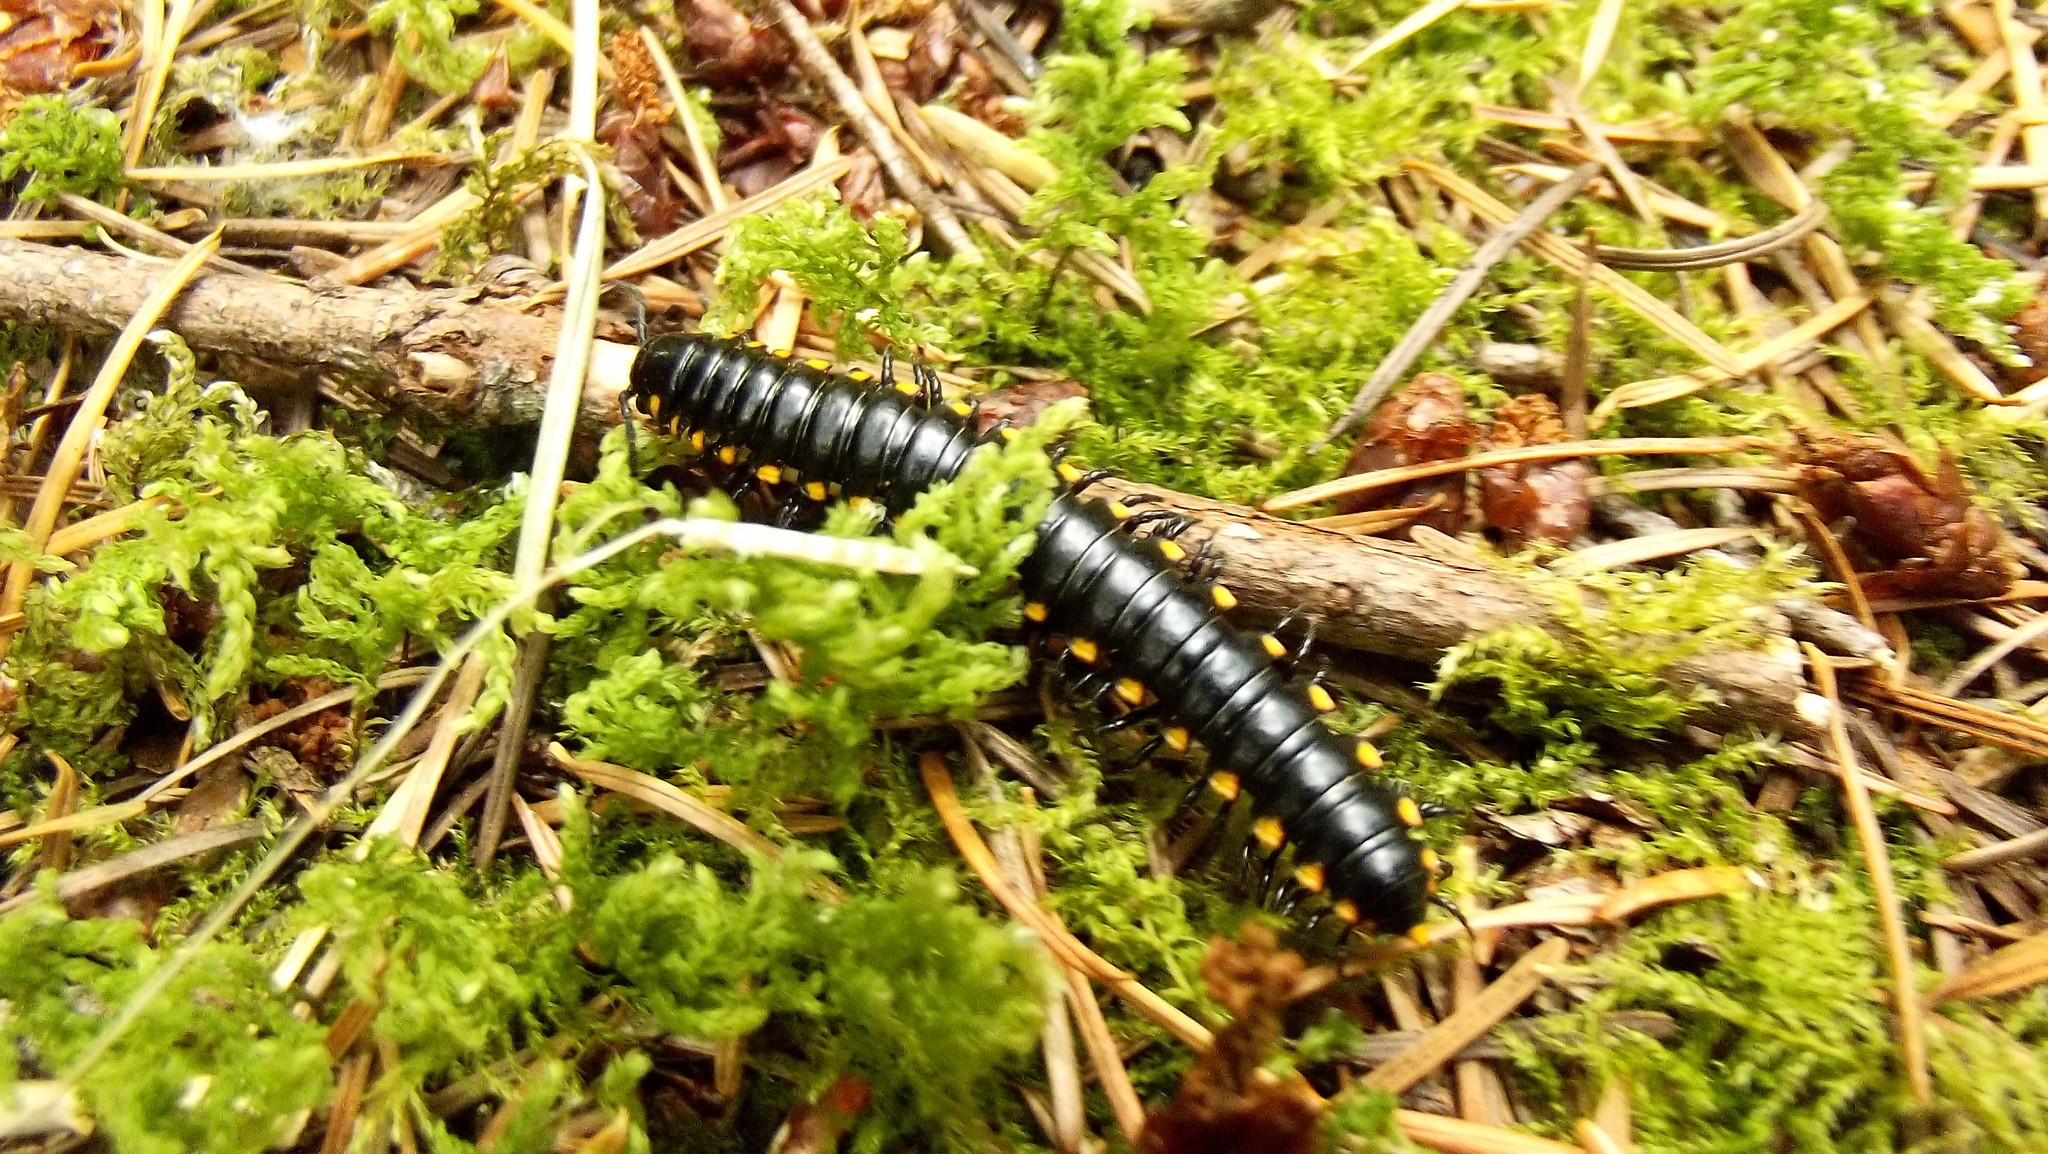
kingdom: Animalia
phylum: Arthropoda
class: Diplopoda
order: Polydesmida
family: Xystodesmidae
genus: Harpaphe
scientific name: Harpaphe haydeniana
